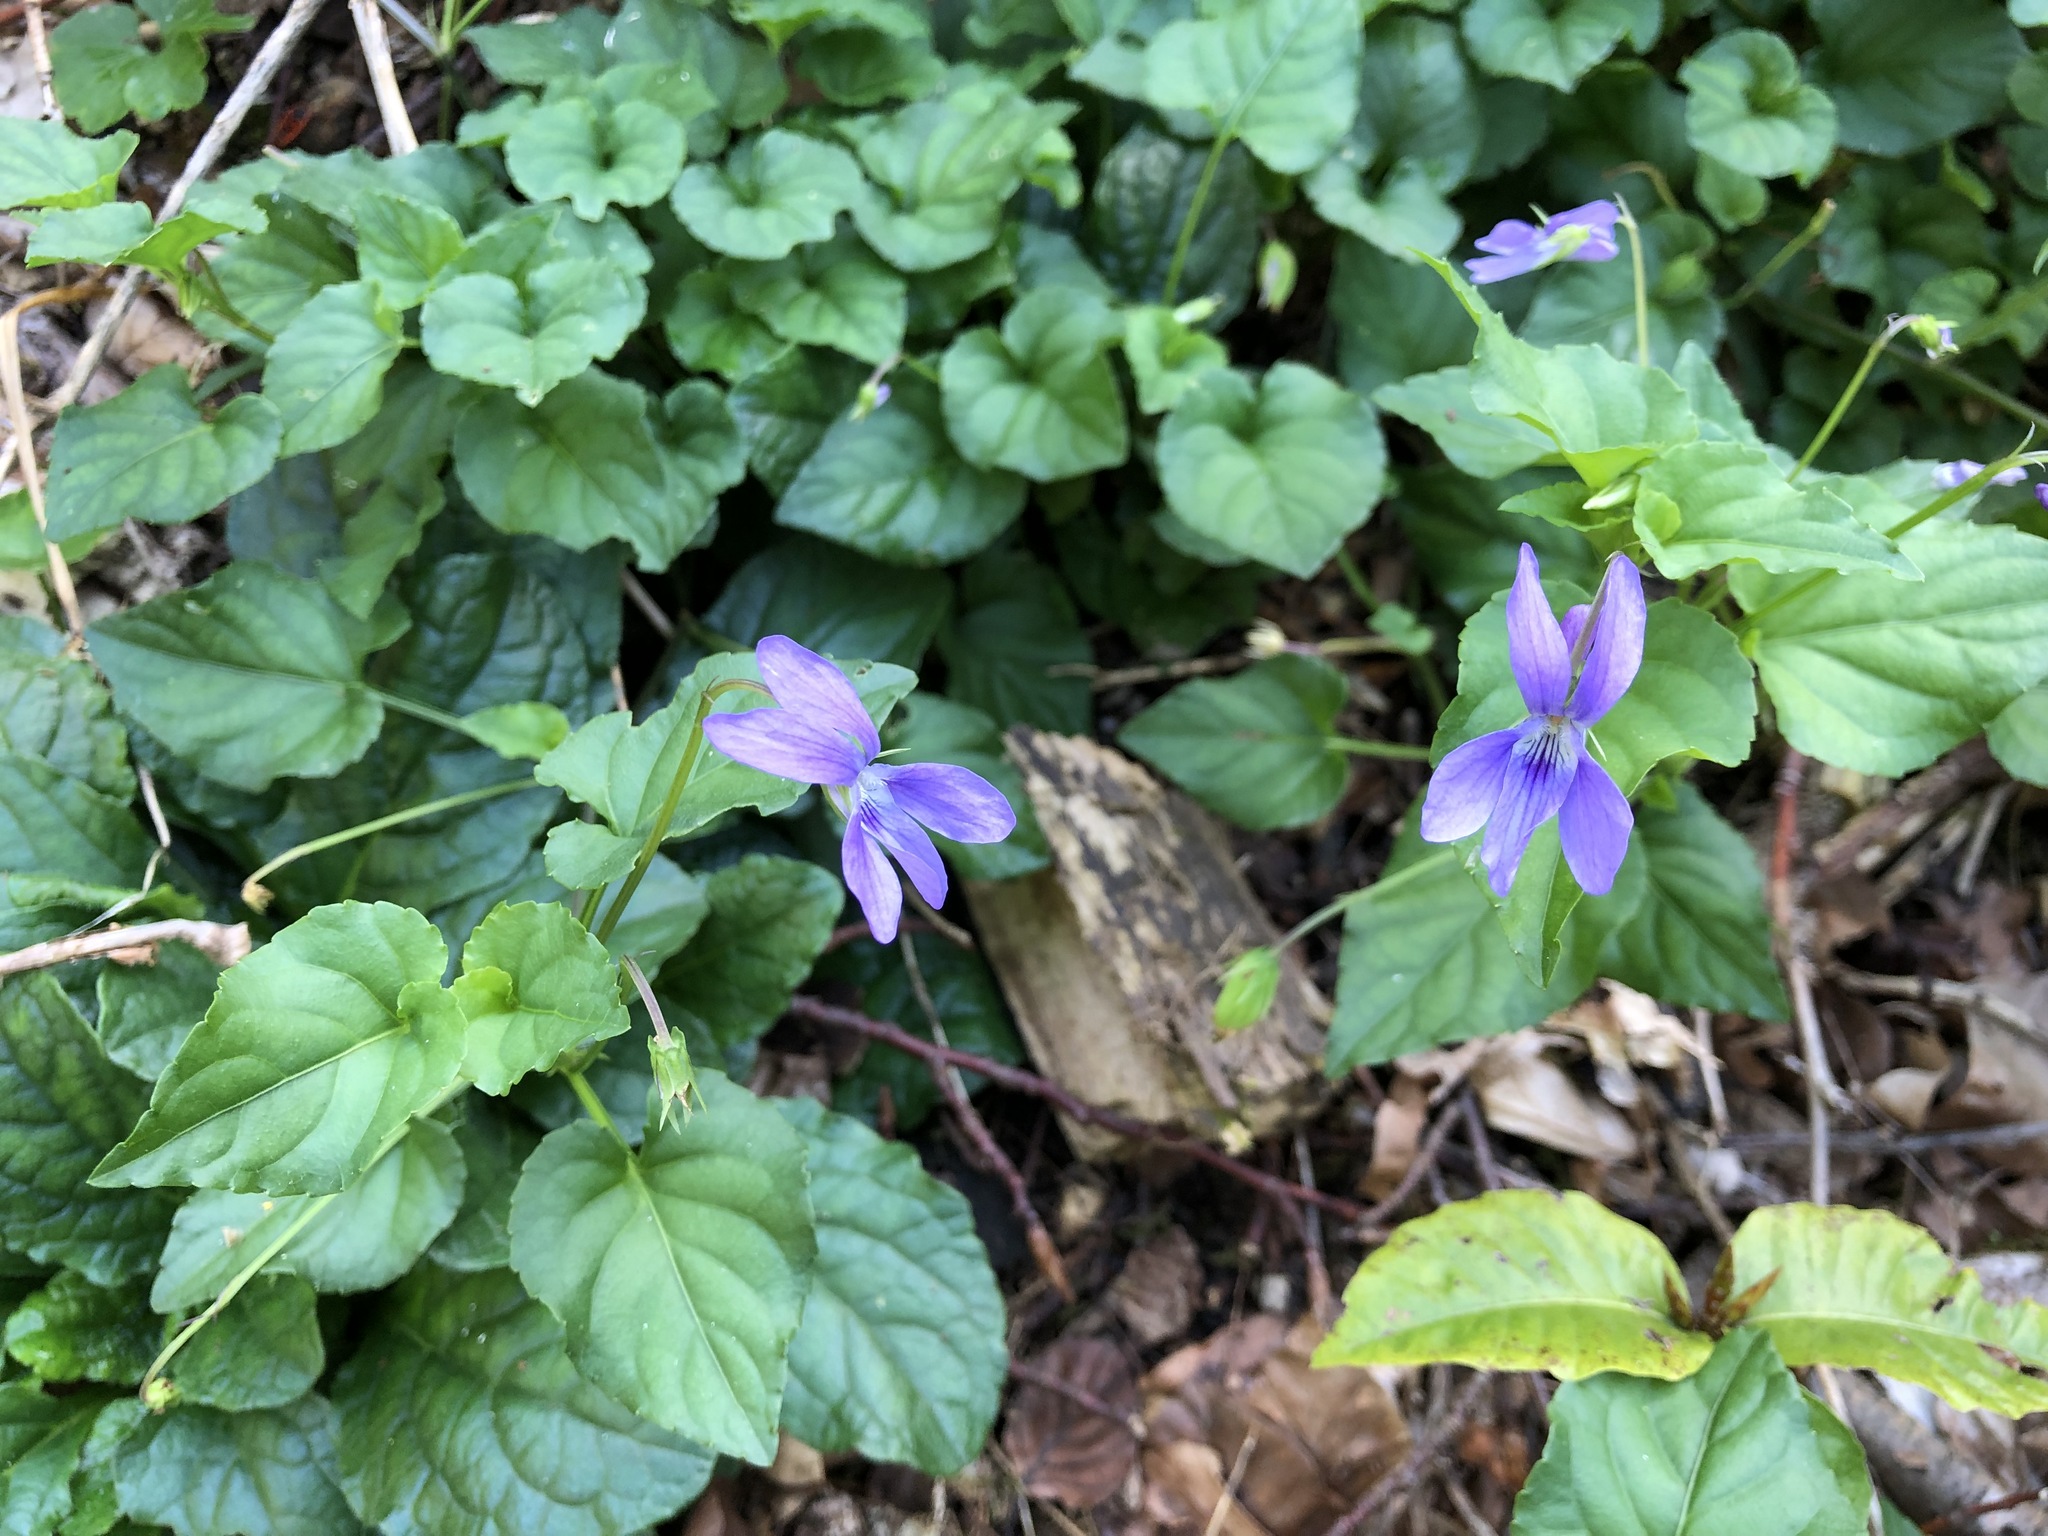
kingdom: Plantae
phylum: Tracheophyta
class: Magnoliopsida
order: Malpighiales
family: Violaceae
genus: Viola
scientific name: Viola reichenbachiana
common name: Early dog-violet
